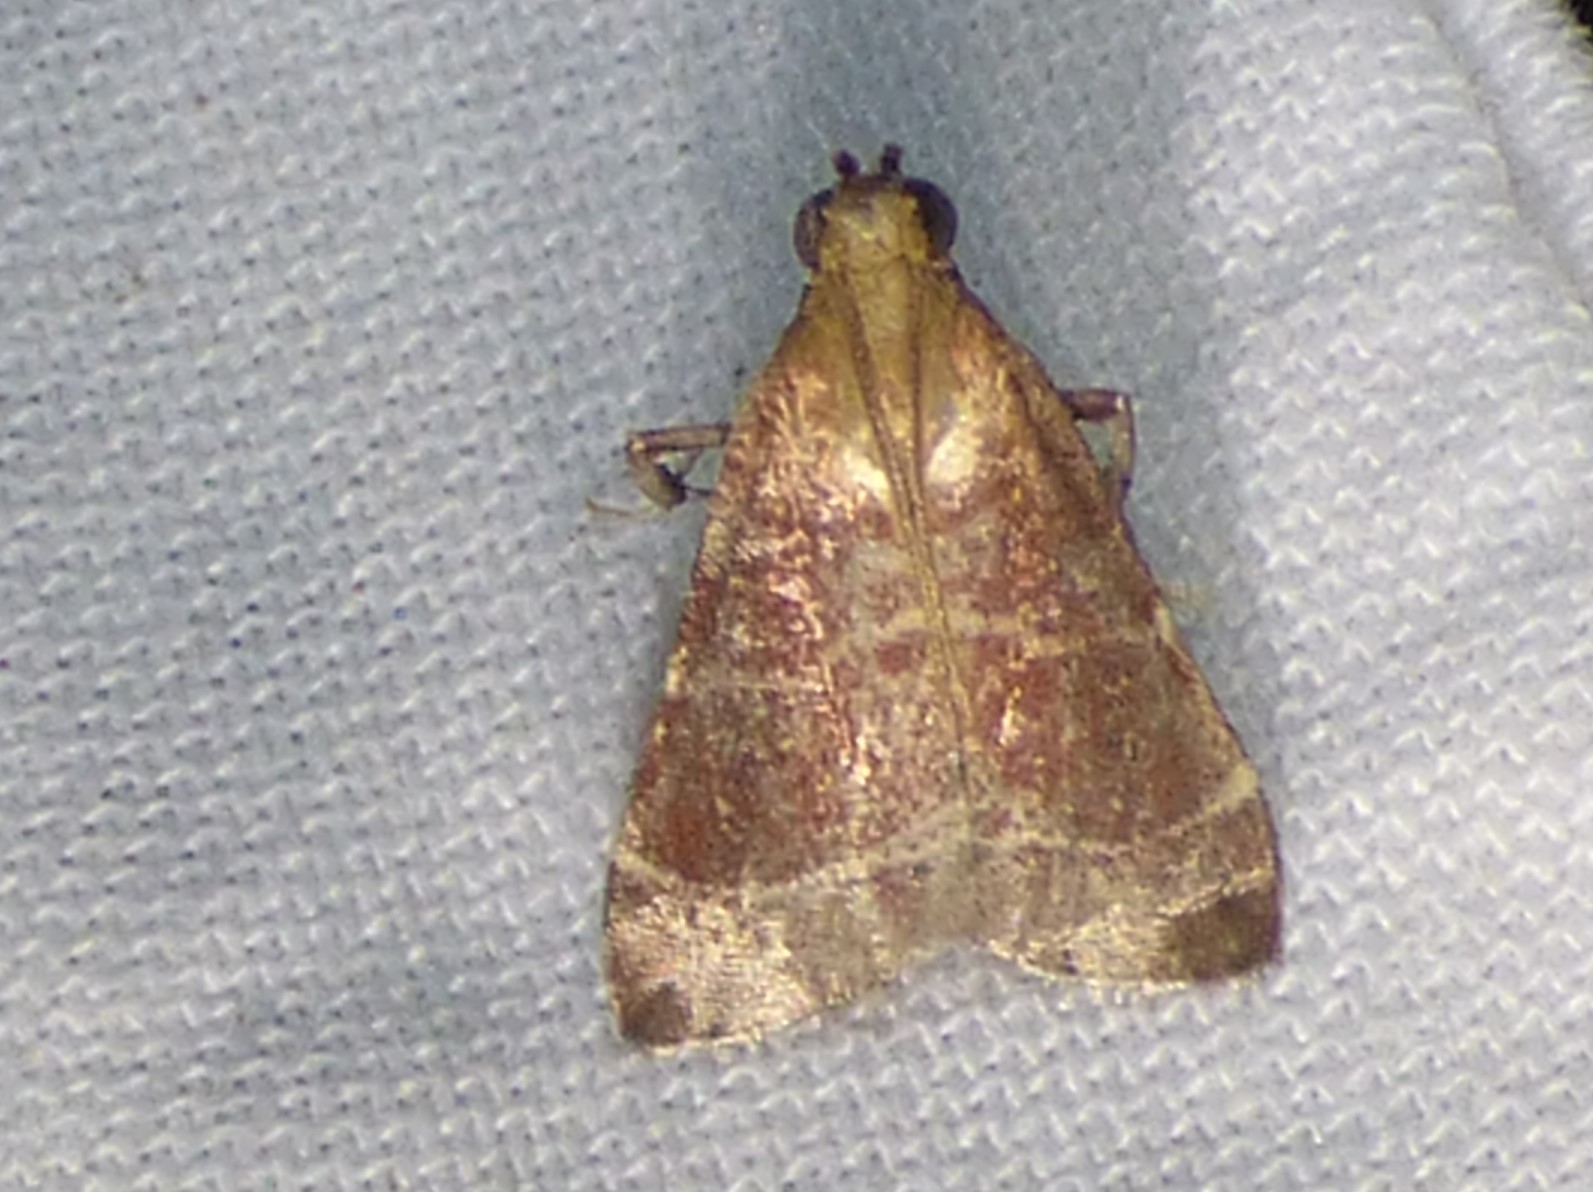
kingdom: Animalia
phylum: Arthropoda
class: Insecta
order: Lepidoptera
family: Pyralidae
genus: Arta
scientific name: Arta statalis
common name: Posturing arta moth
